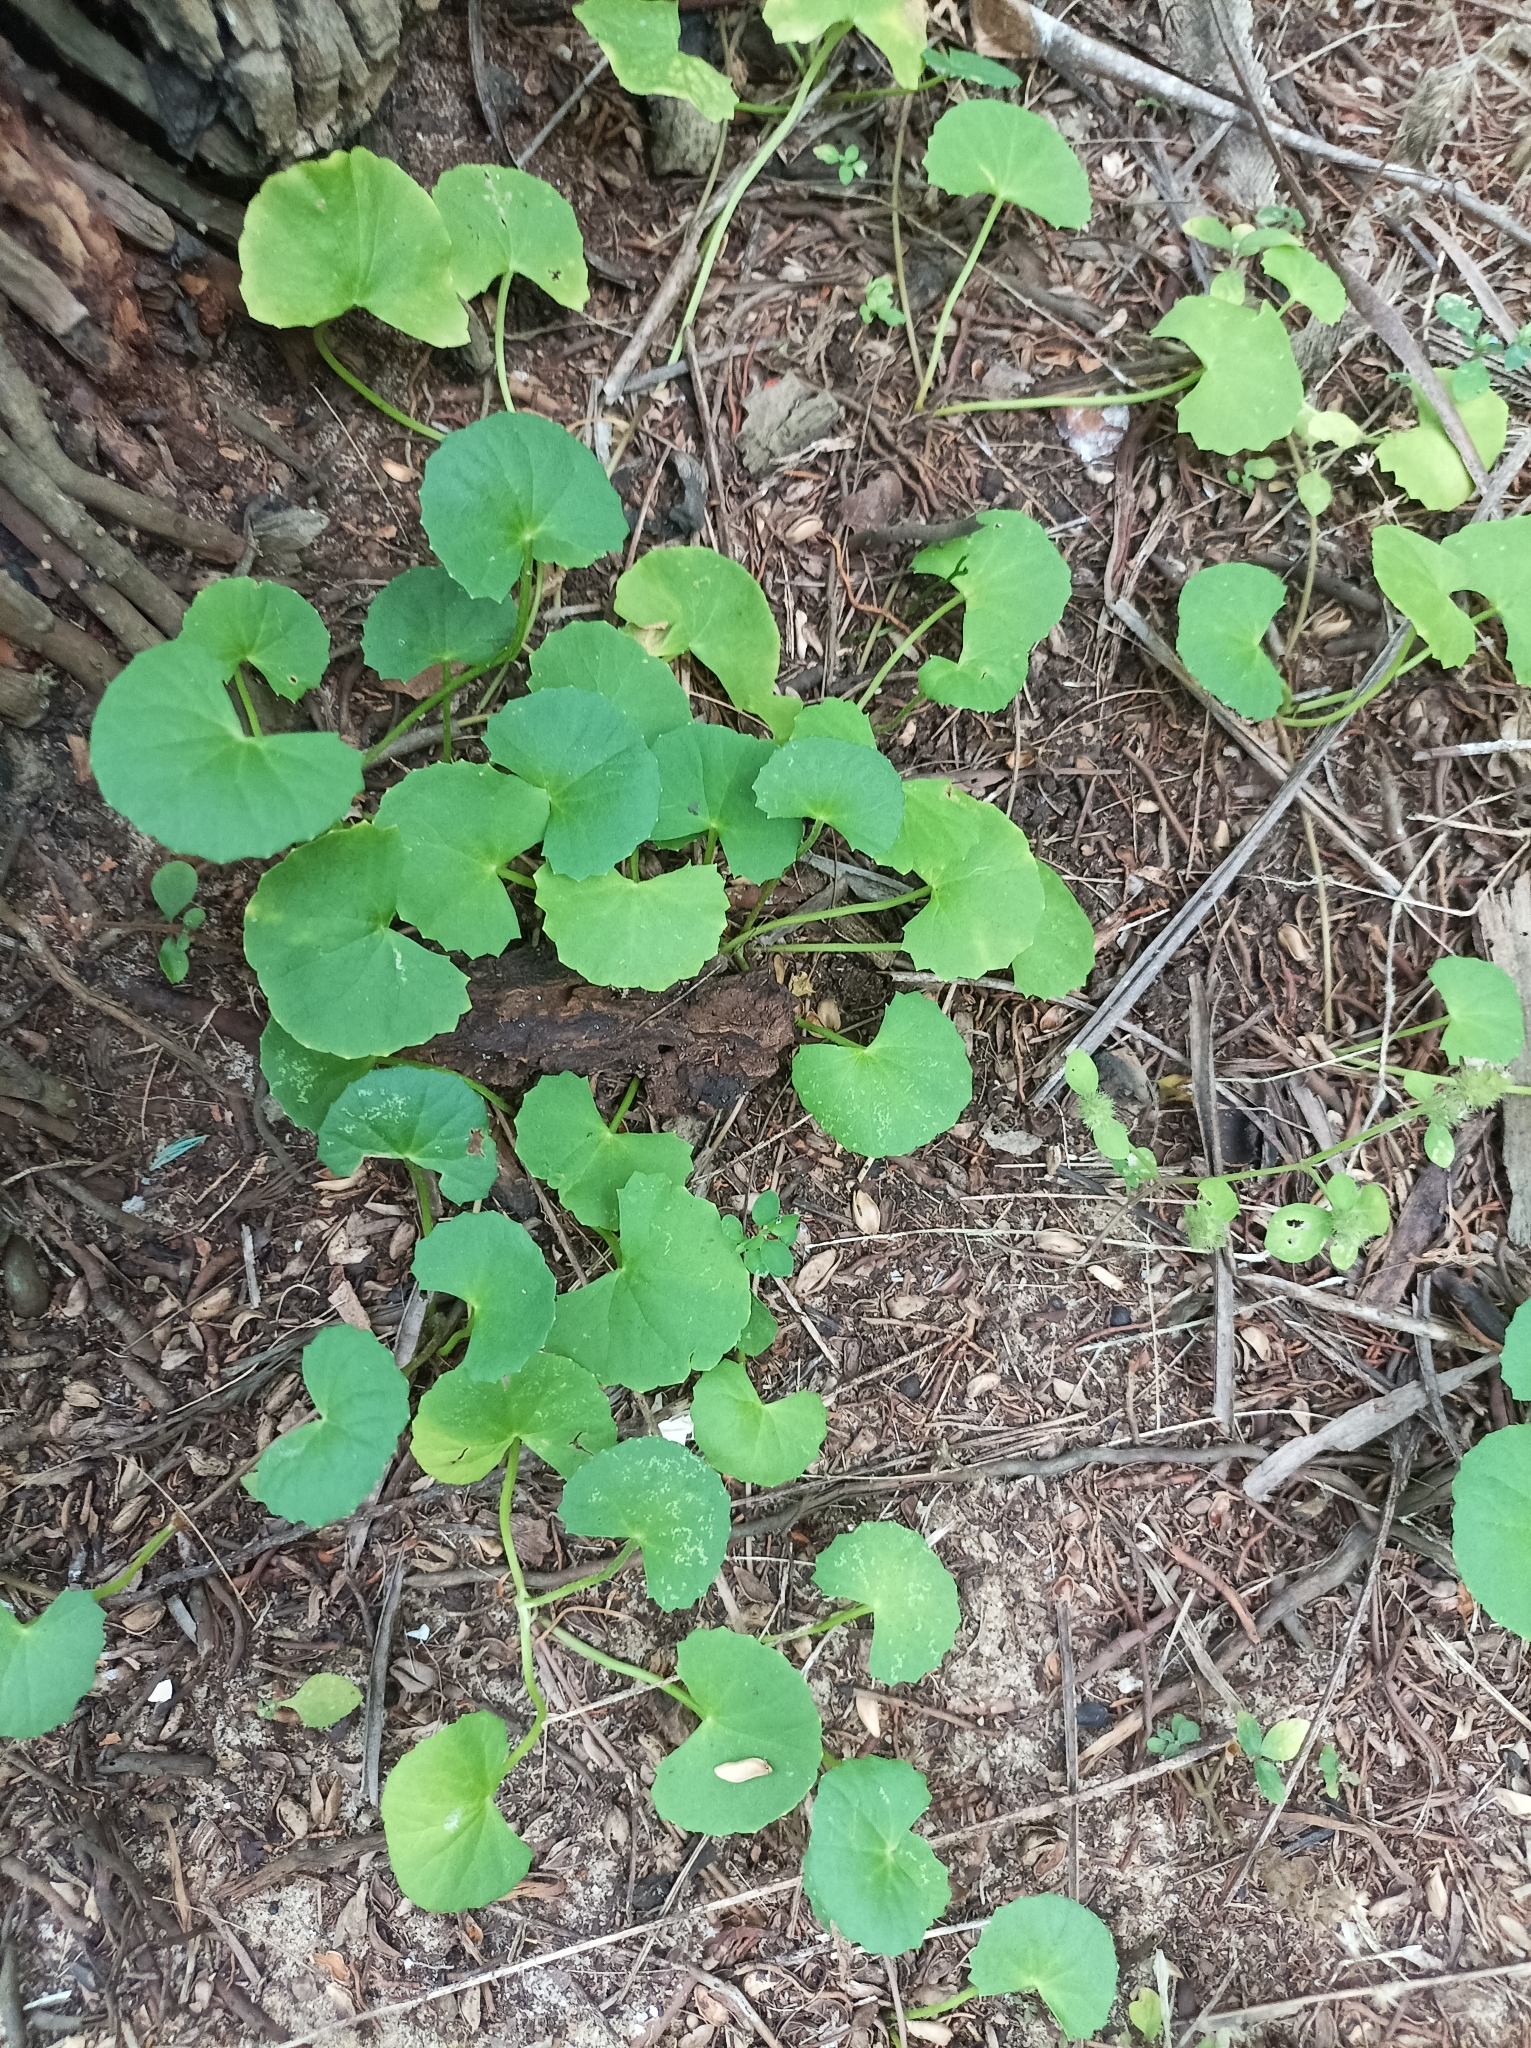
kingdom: Plantae
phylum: Tracheophyta
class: Magnoliopsida
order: Apiales
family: Apiaceae
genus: Centella
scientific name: Centella asiatica
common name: Spadeleaf
